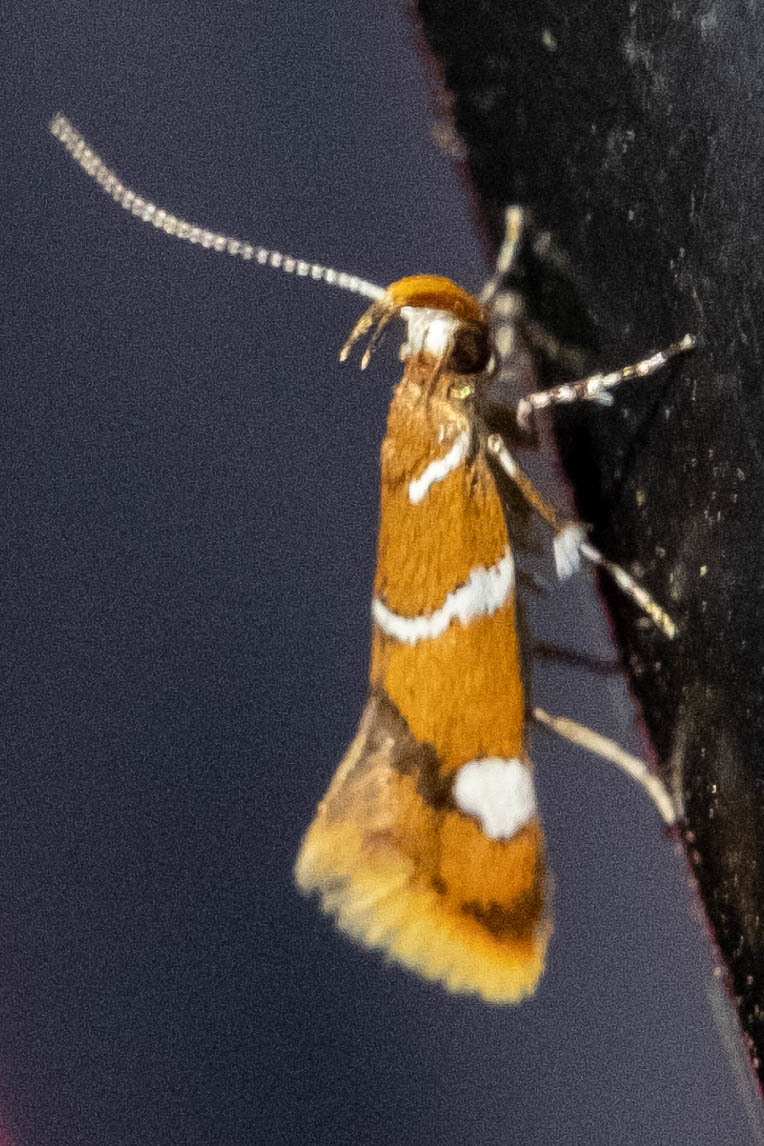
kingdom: Animalia
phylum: Arthropoda
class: Insecta
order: Lepidoptera
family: Oecophoridae
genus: Promalactis
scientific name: Promalactis suzukiella
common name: Moth
